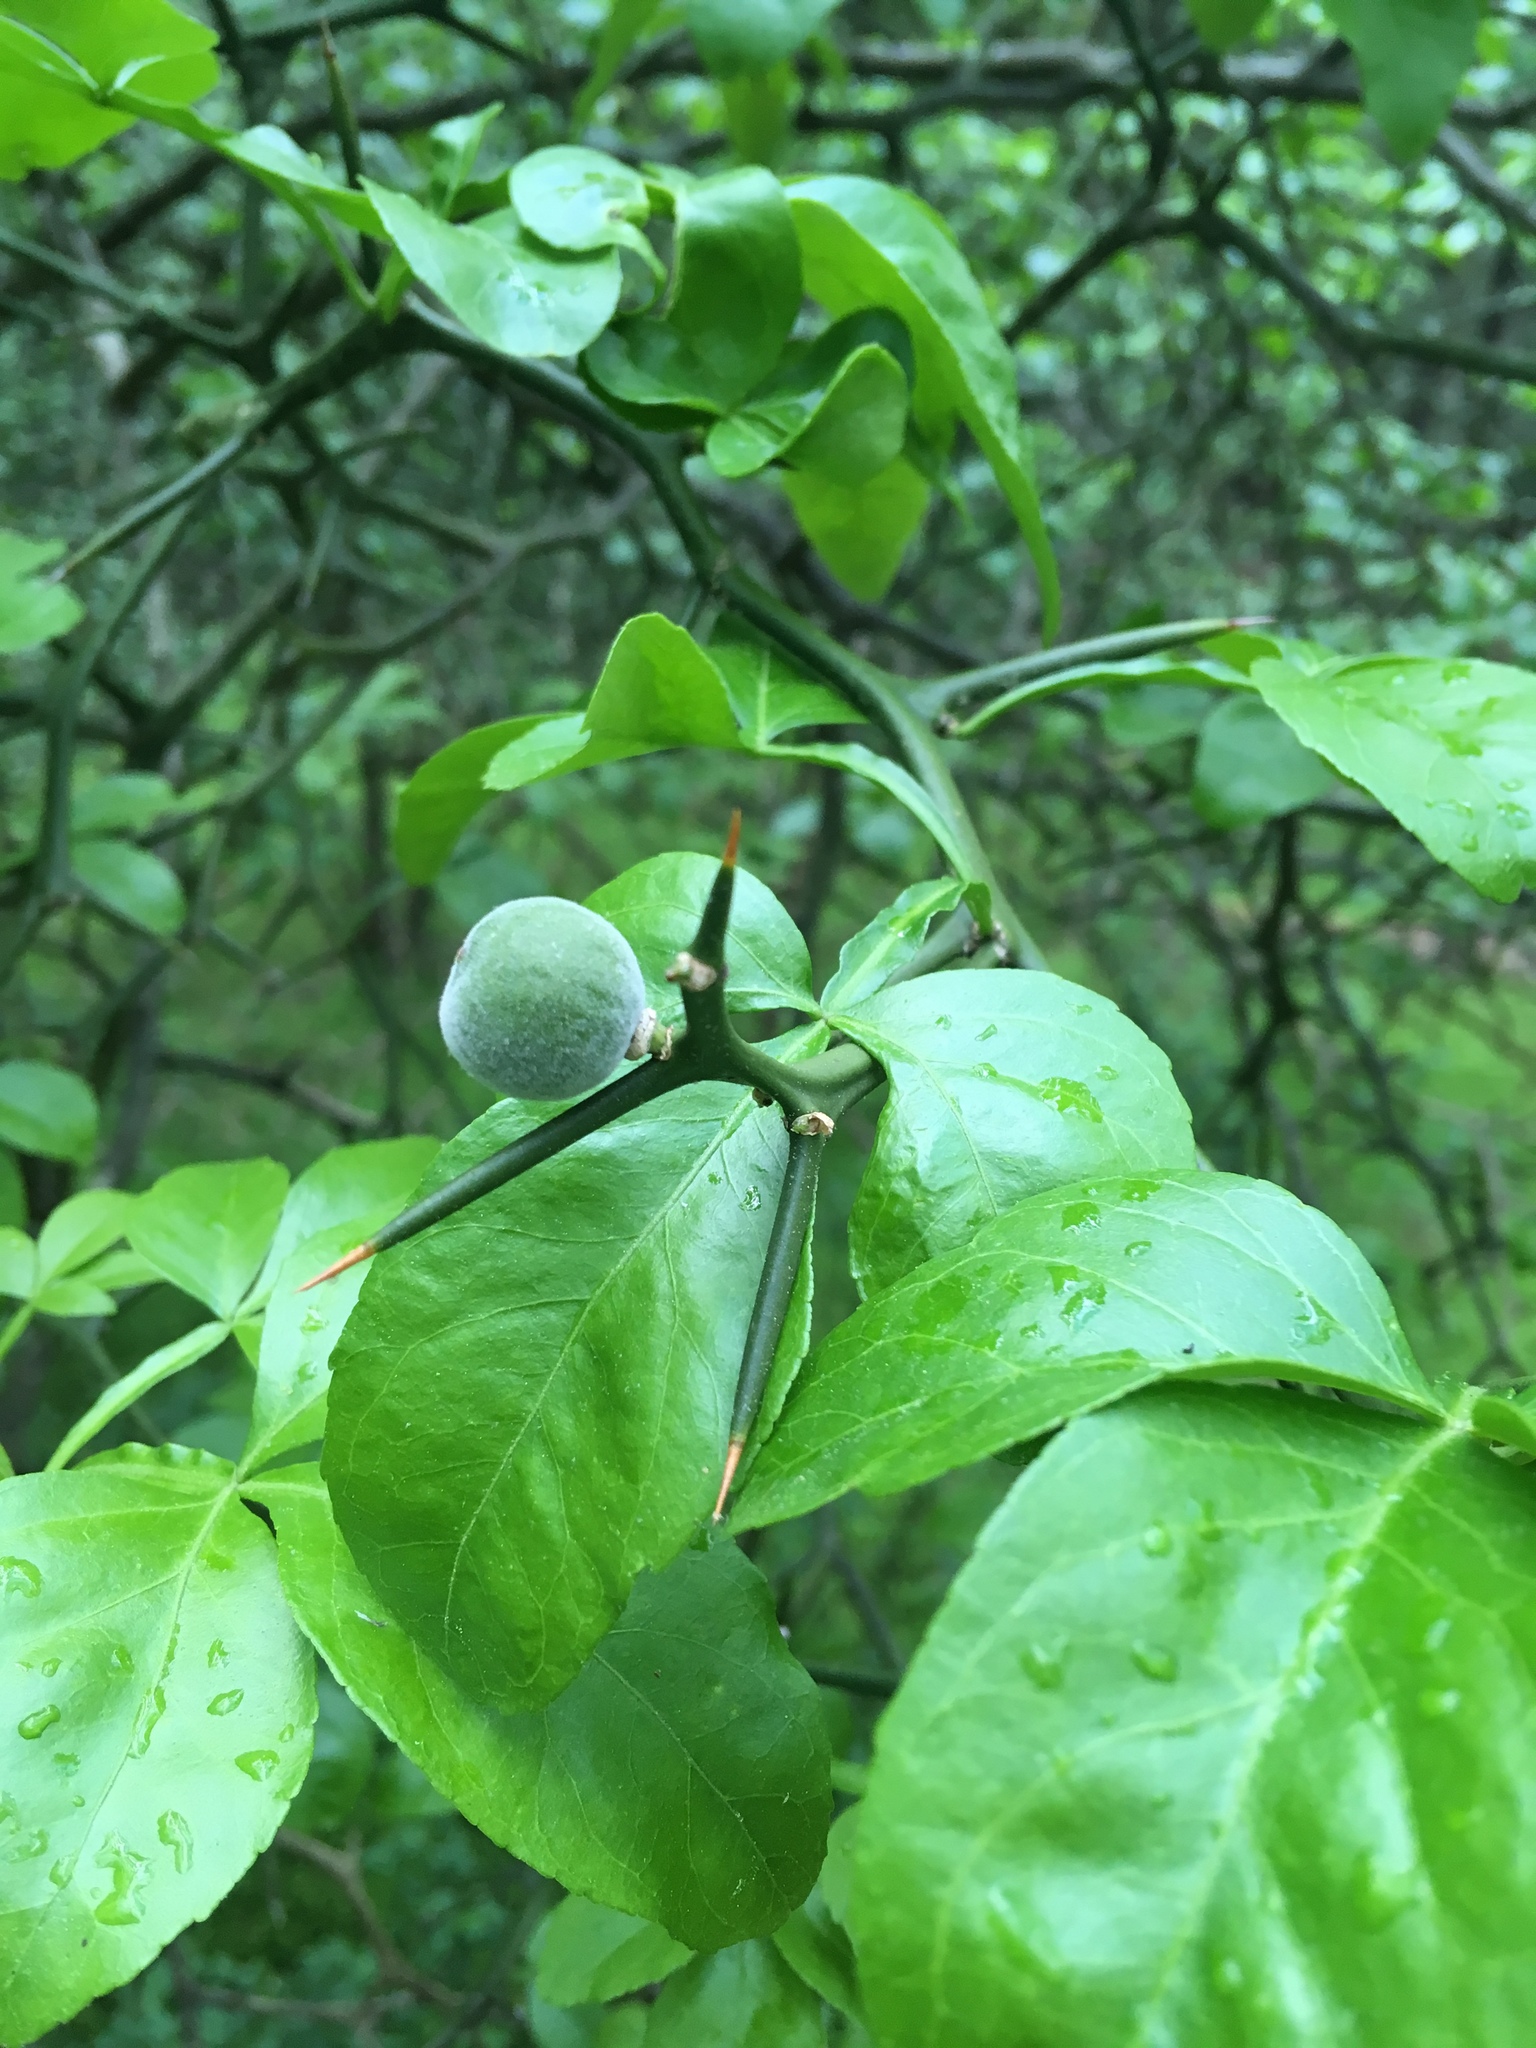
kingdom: Plantae
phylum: Tracheophyta
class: Magnoliopsida
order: Sapindales
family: Rutaceae
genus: Citrus
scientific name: Citrus trifoliata
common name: Japanese bitter-orange
